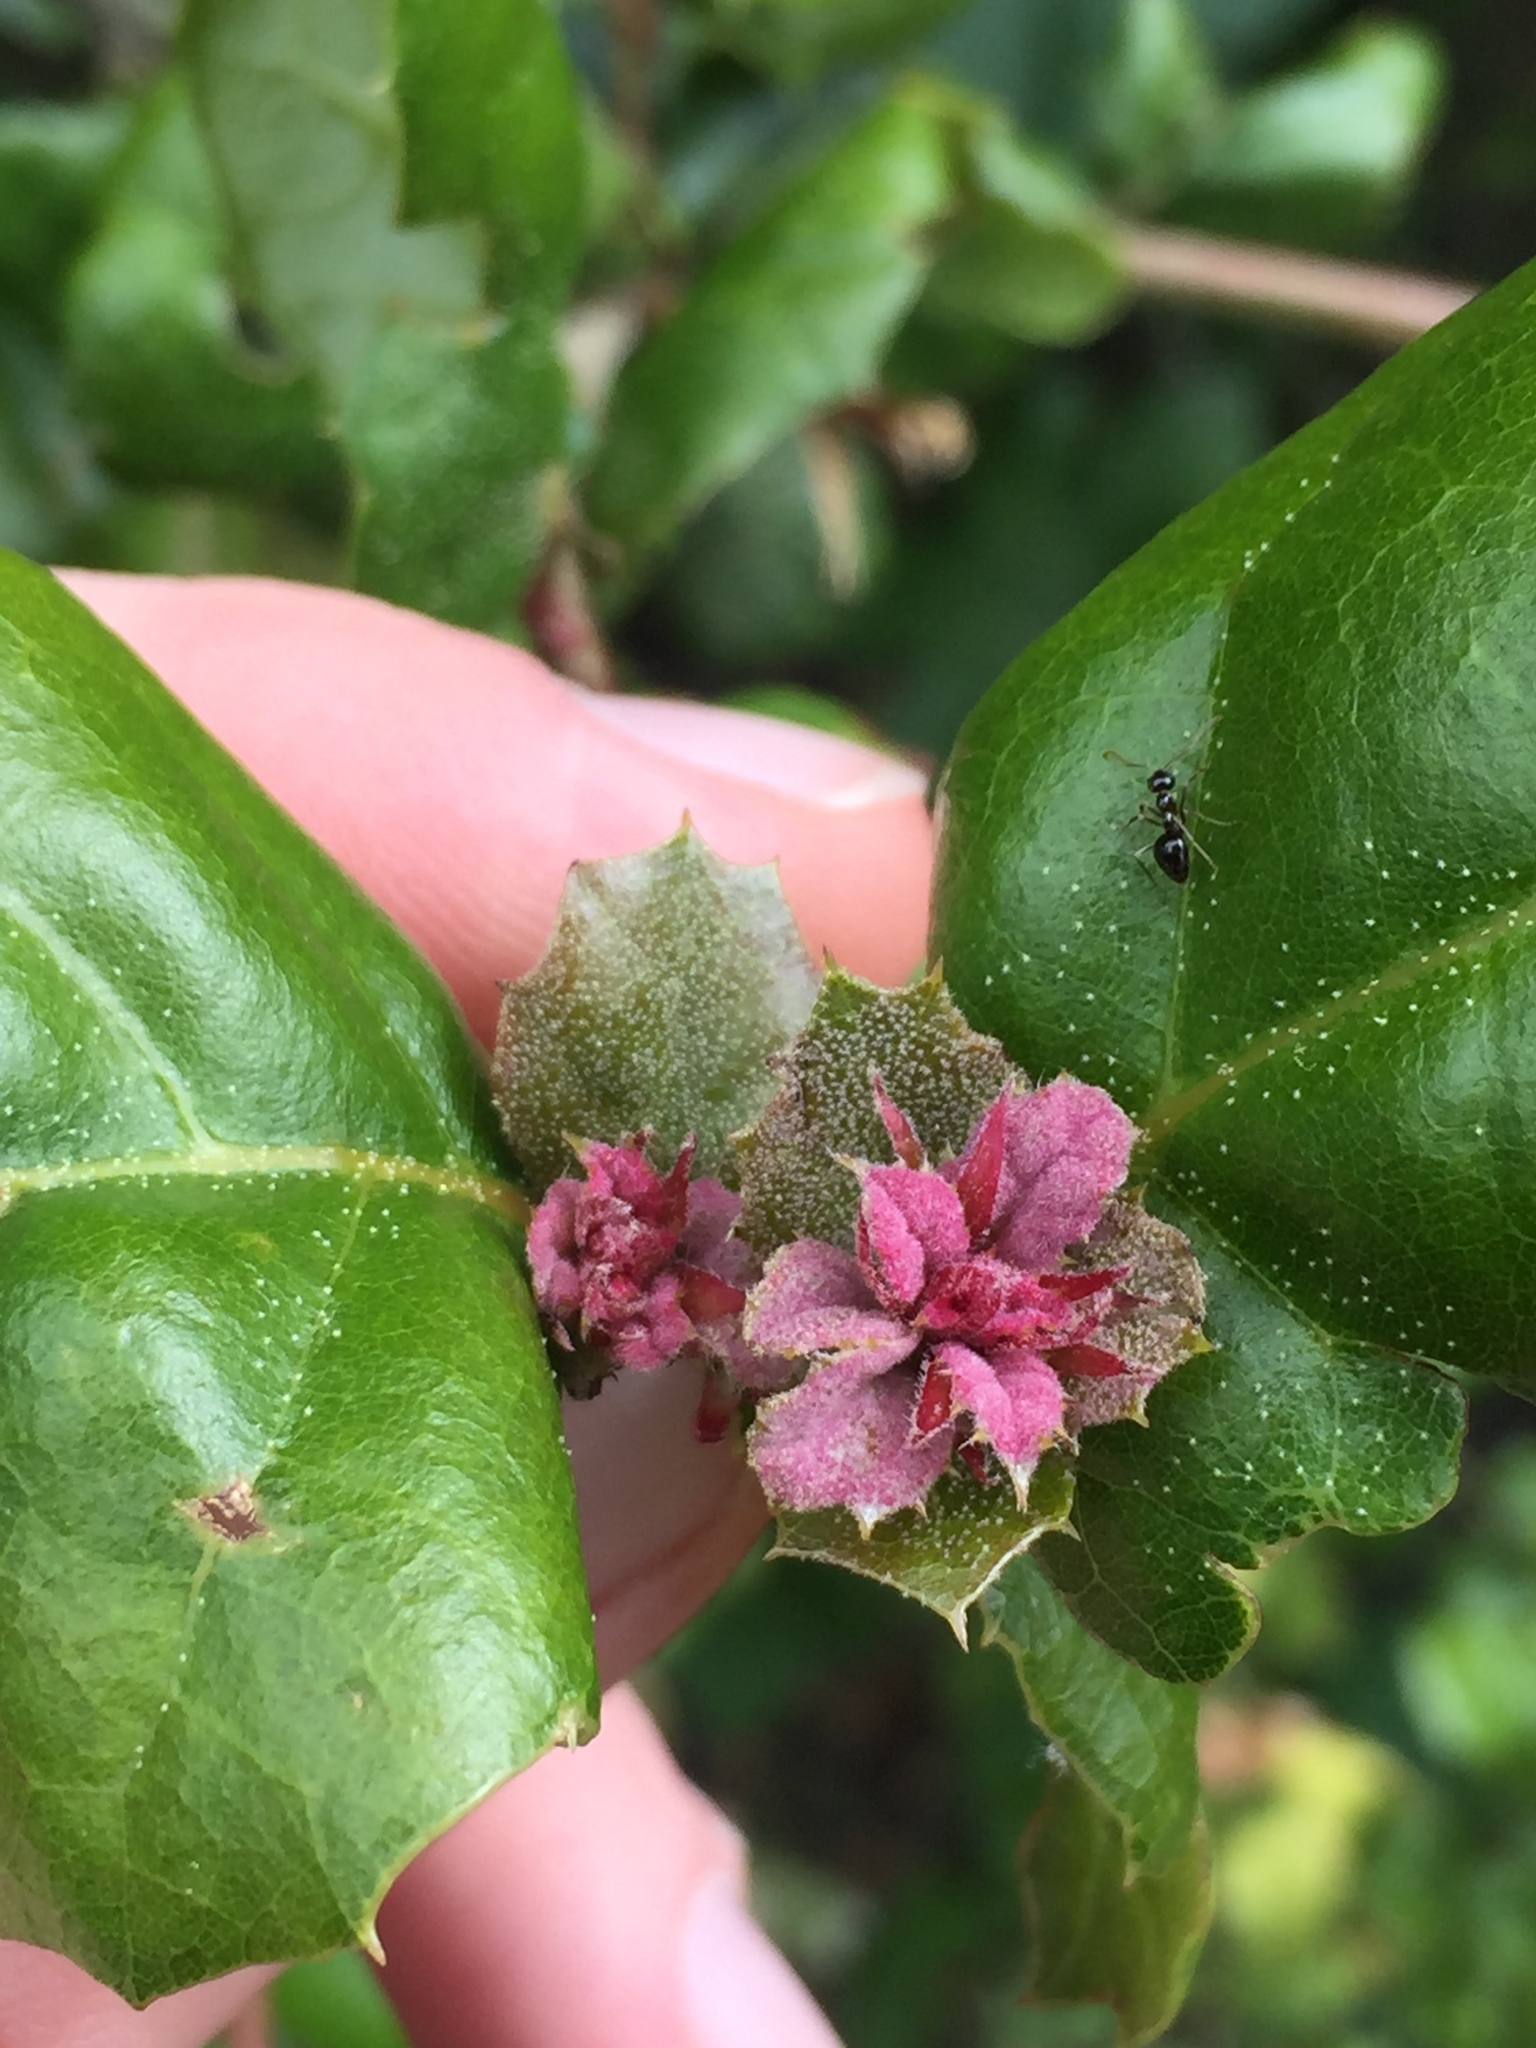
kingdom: Plantae
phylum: Tracheophyta
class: Magnoliopsida
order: Fagales
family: Fagaceae
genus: Quercus
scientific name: Quercus agrifolia
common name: California live oak
